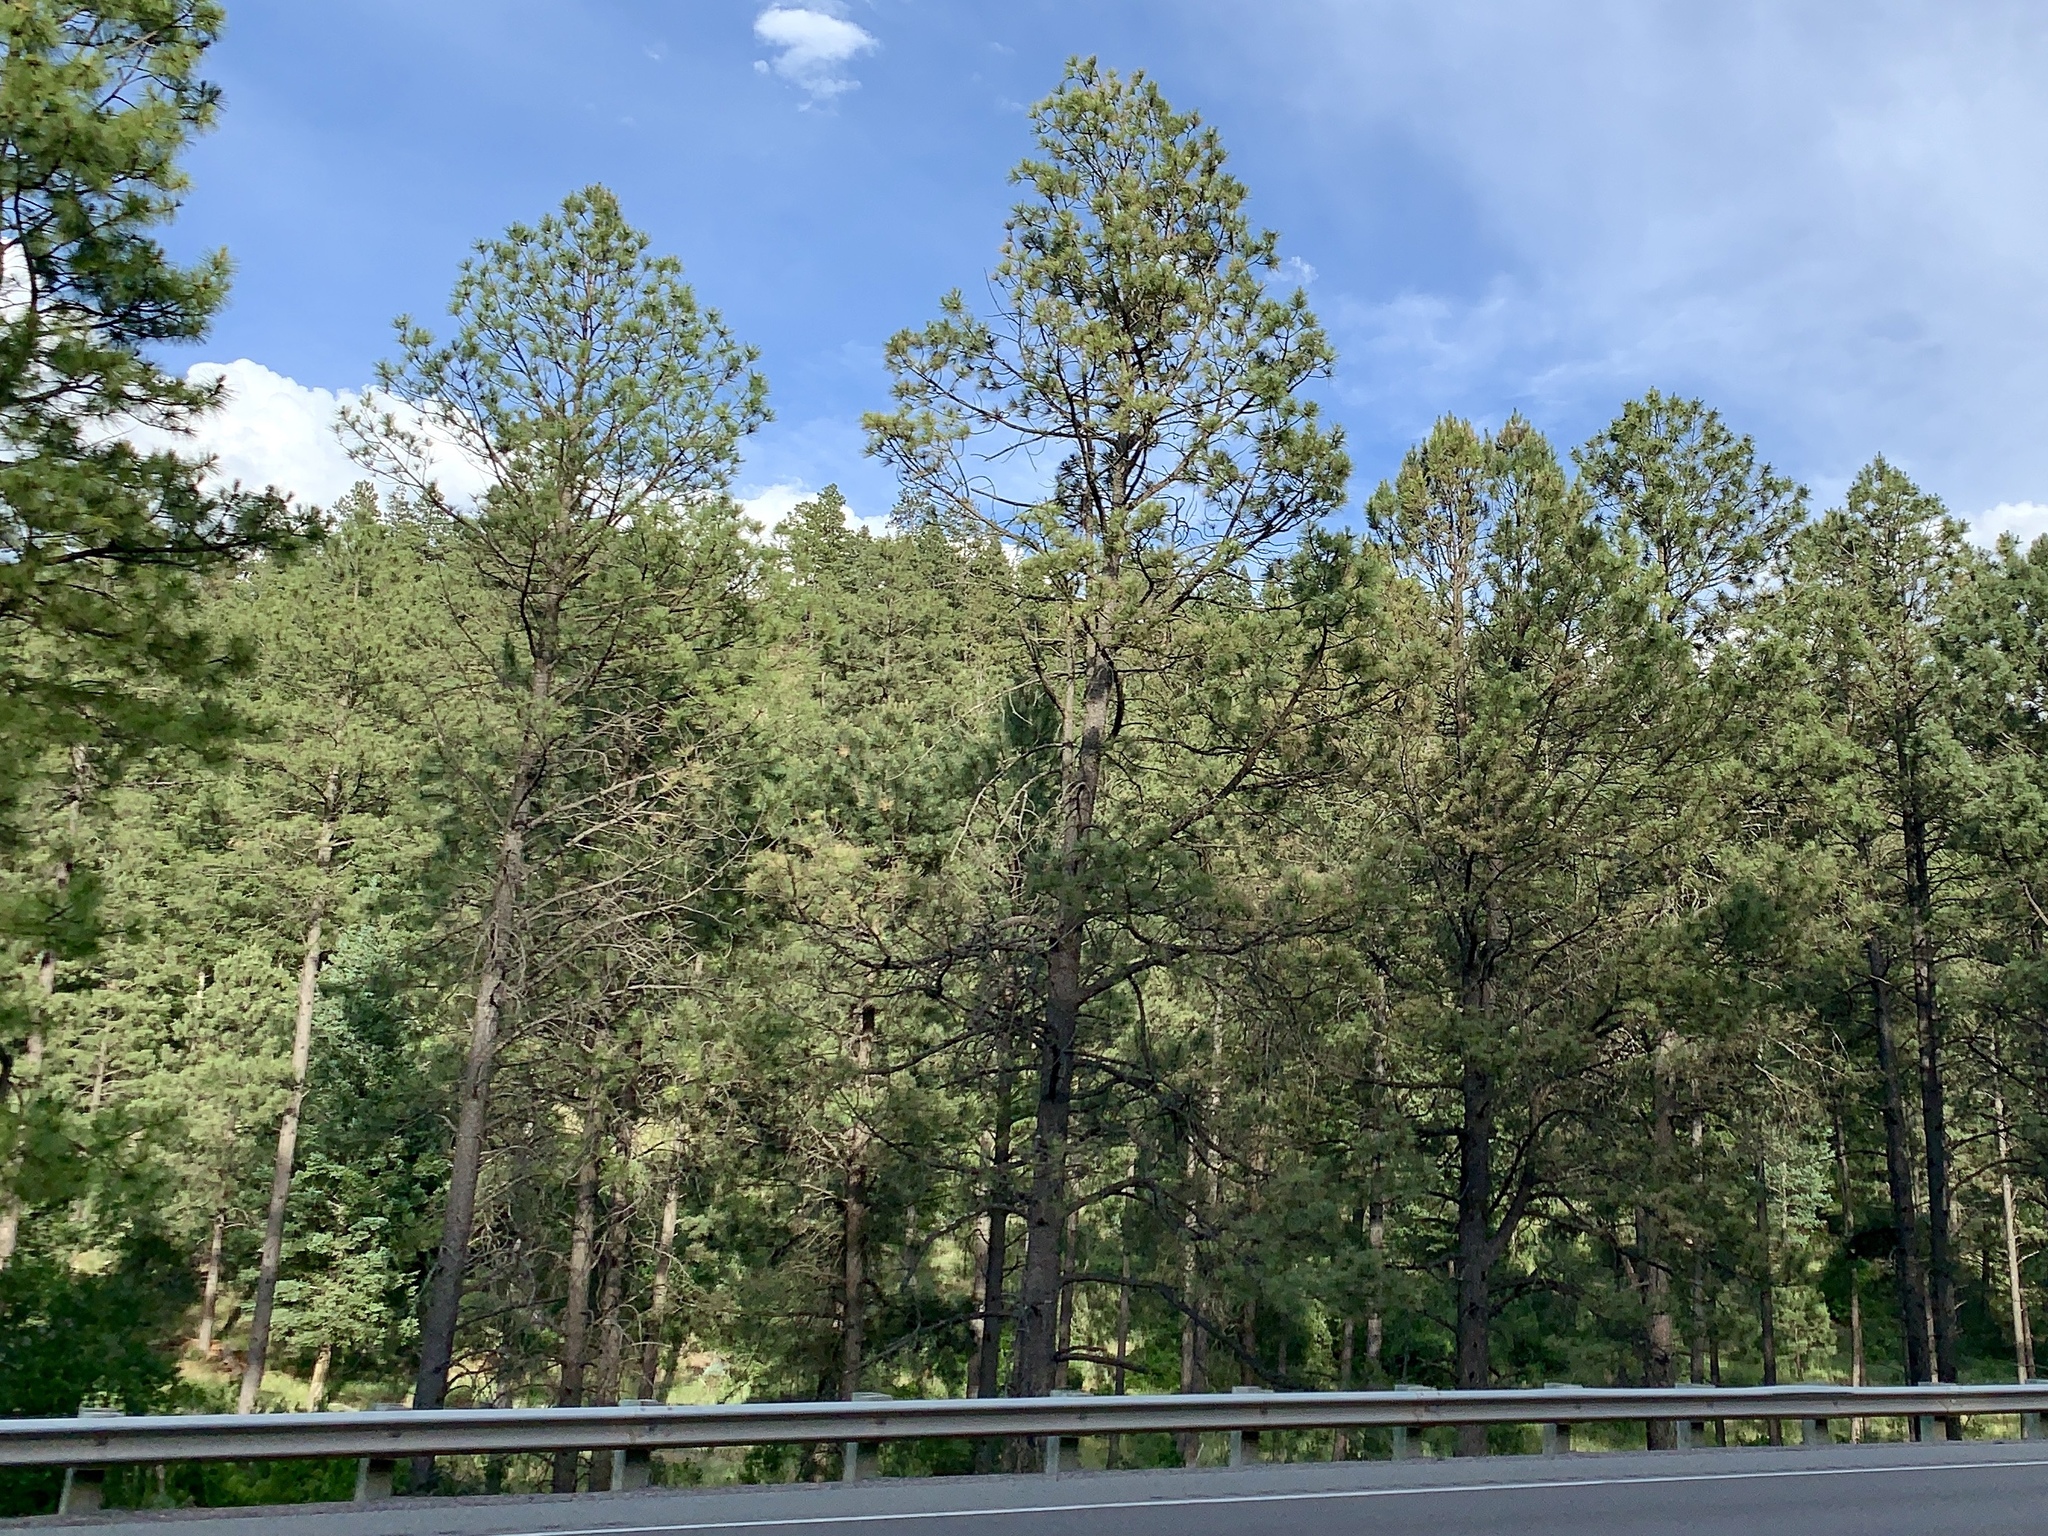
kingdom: Plantae
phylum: Tracheophyta
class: Pinopsida
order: Pinales
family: Pinaceae
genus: Pinus
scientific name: Pinus ponderosa
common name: Western yellow-pine
